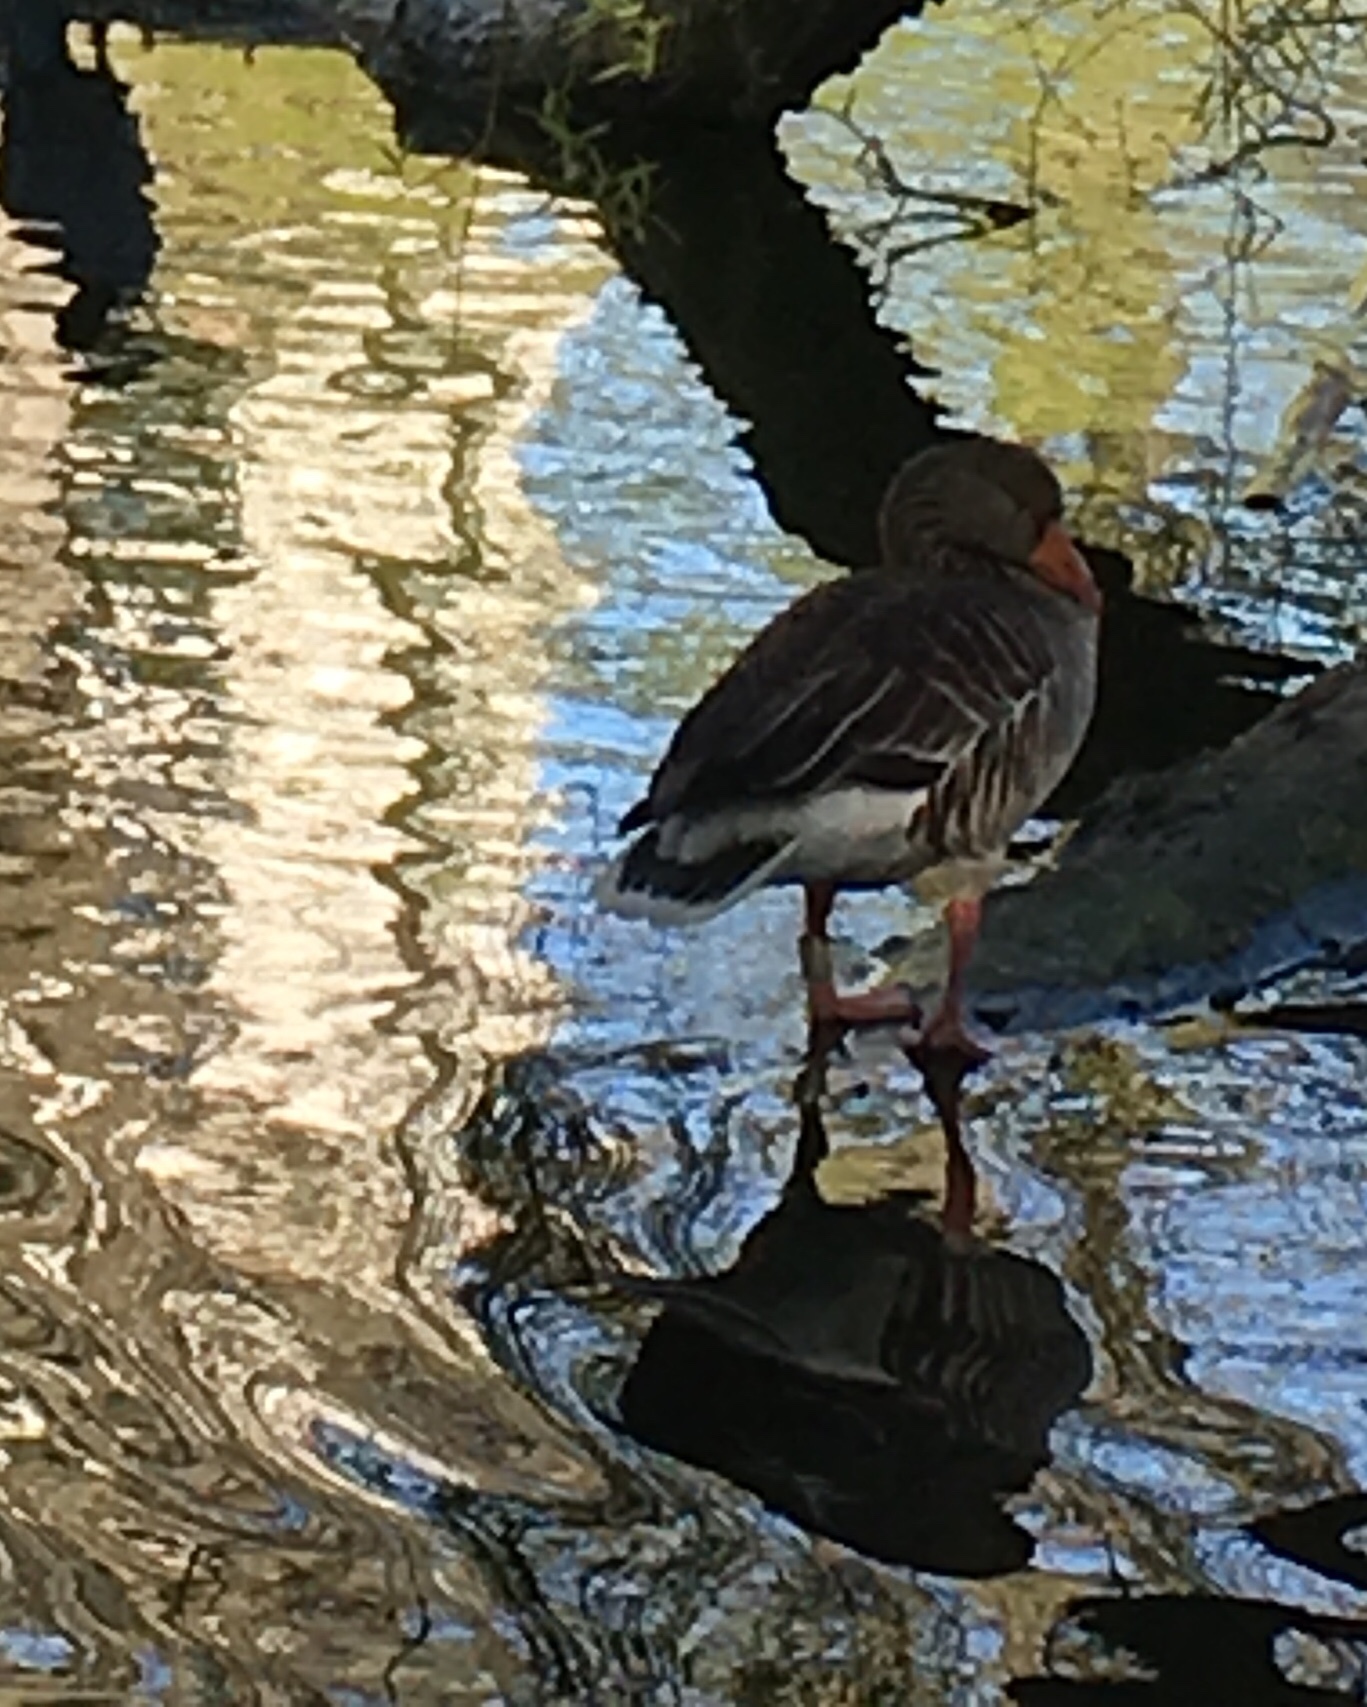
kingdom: Animalia
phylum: Chordata
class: Aves
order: Anseriformes
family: Anatidae
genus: Anser
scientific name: Anser anser
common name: Greylag goose
